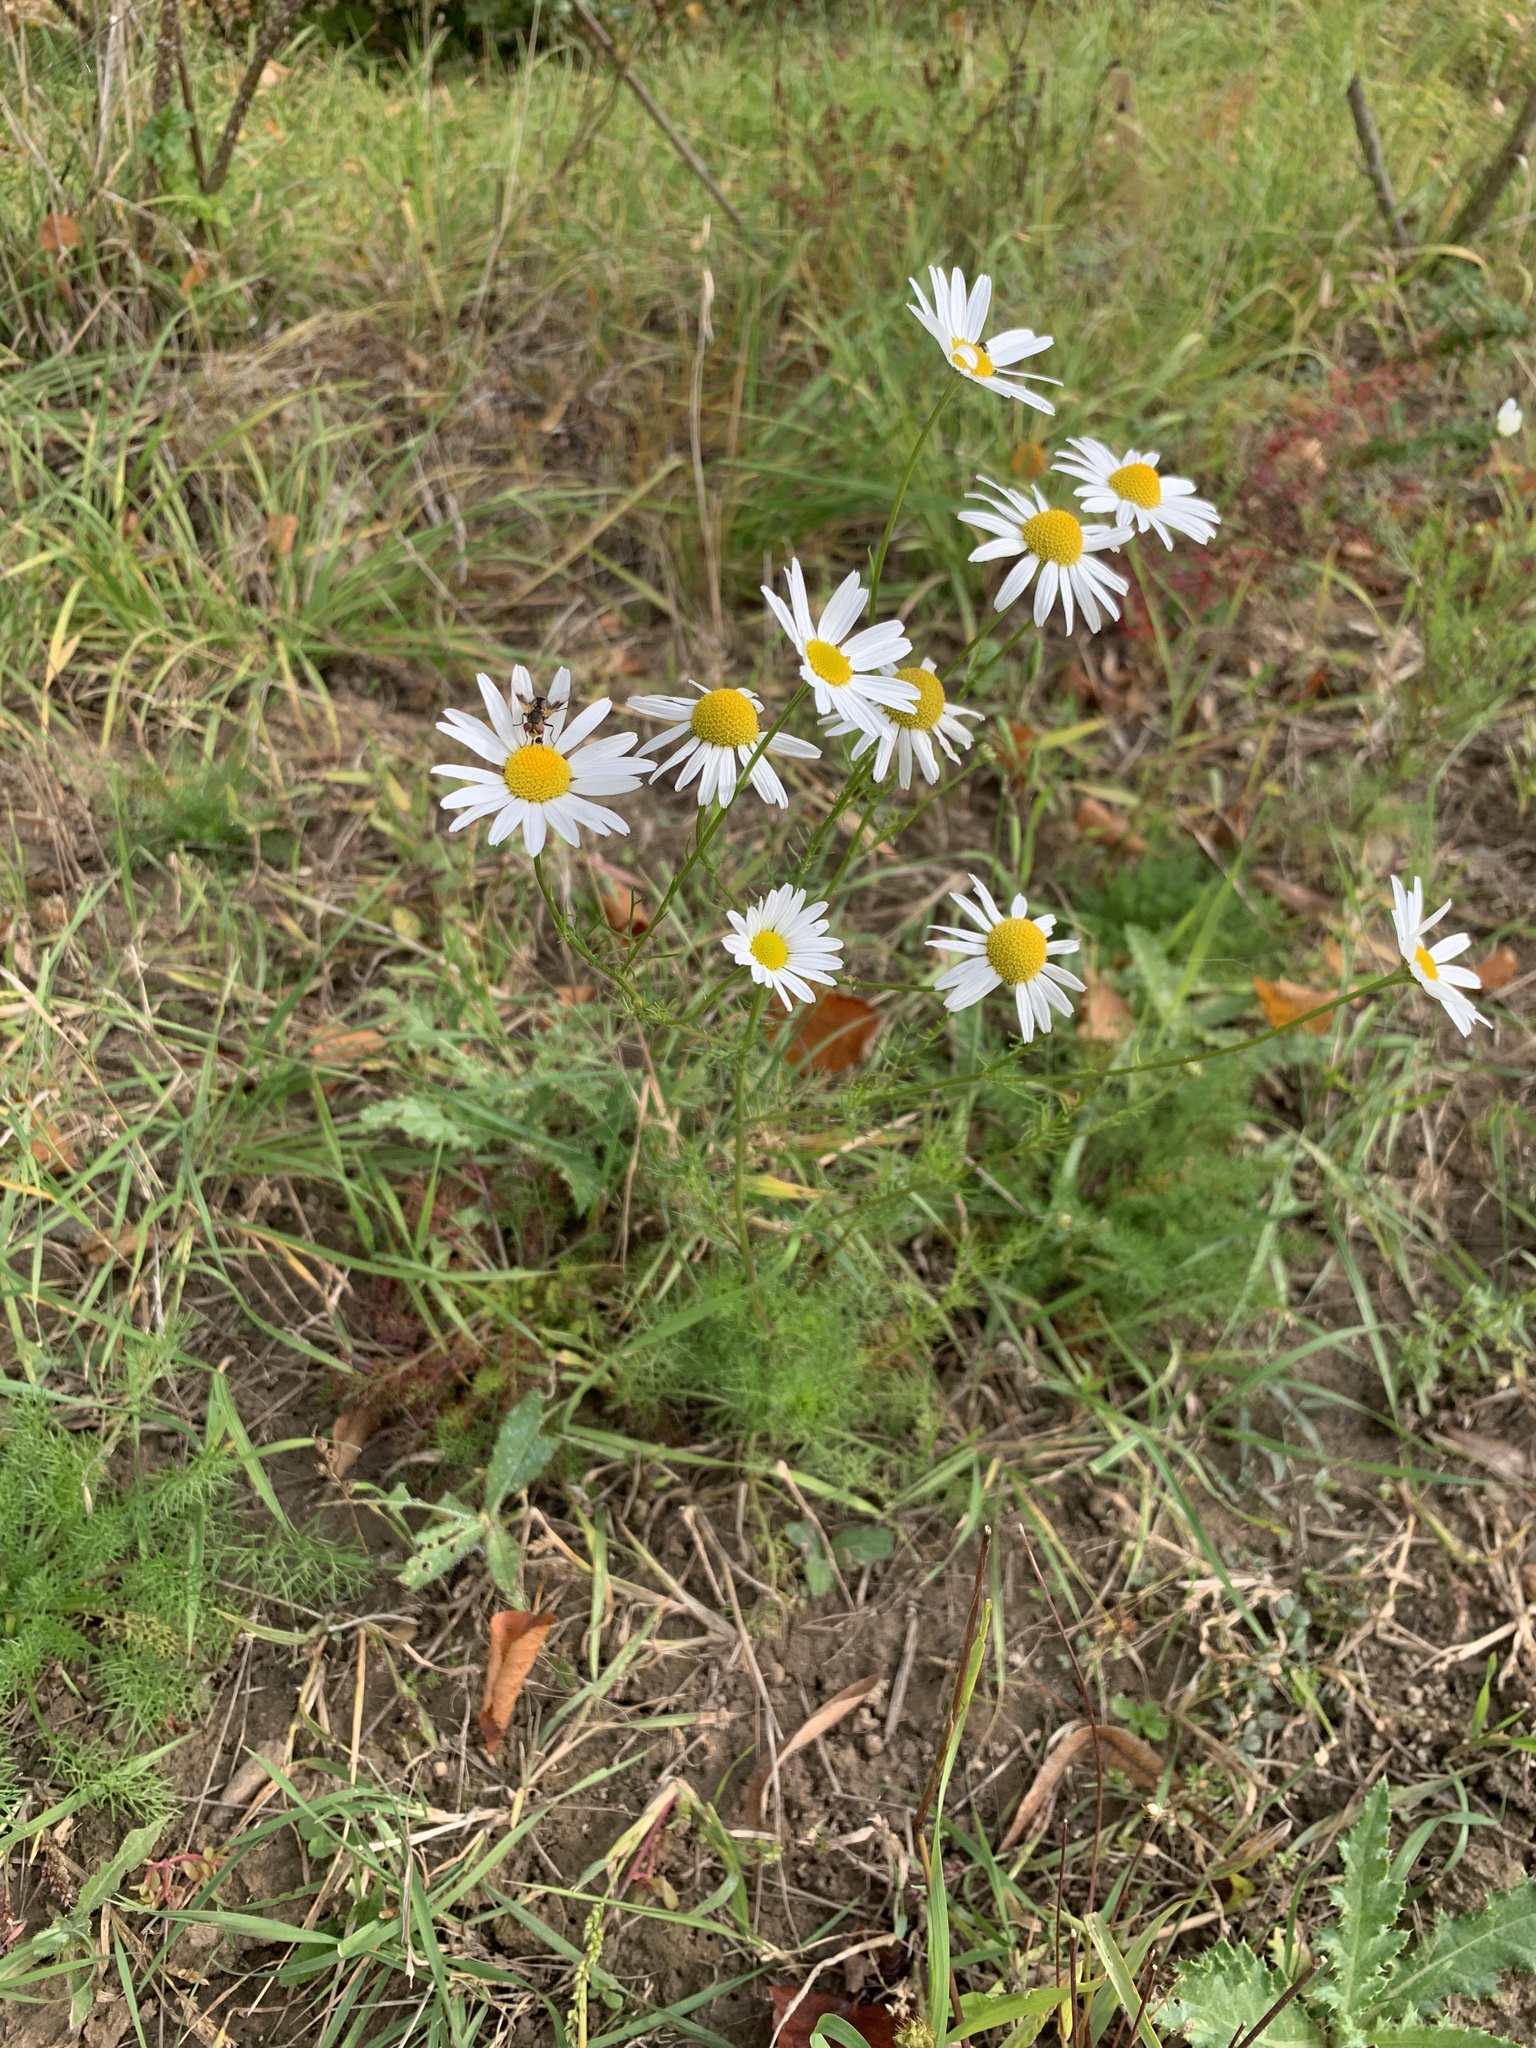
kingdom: Plantae
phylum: Tracheophyta
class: Magnoliopsida
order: Asterales
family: Asteraceae
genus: Tripleurospermum
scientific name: Tripleurospermum inodorum
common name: Scentless mayweed
